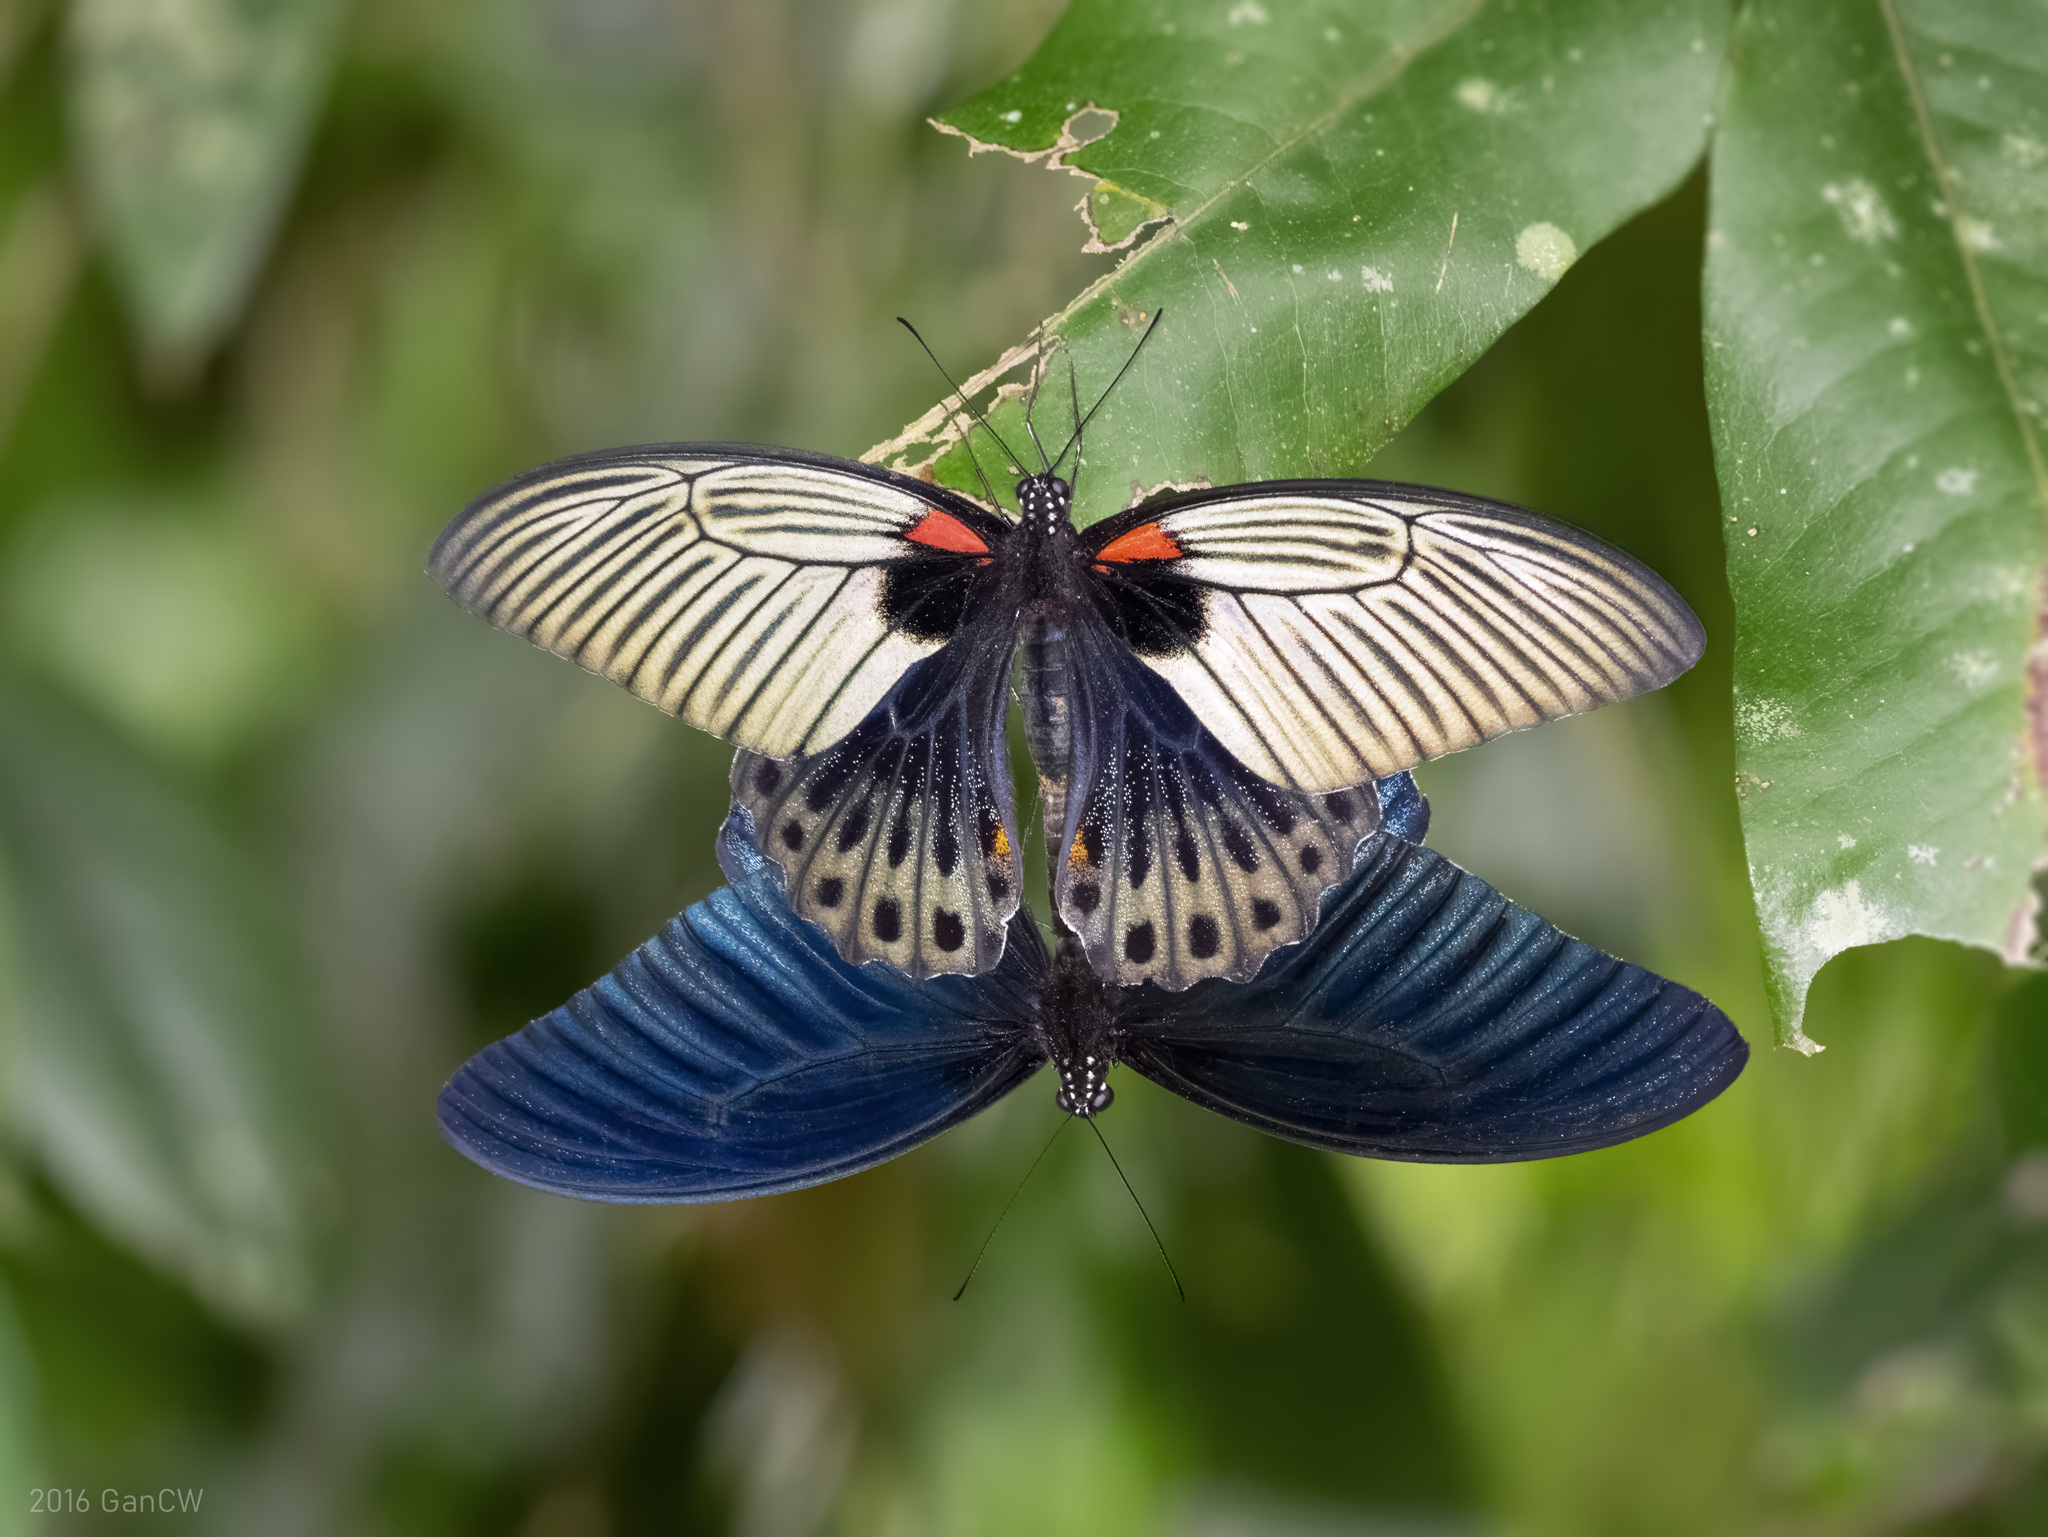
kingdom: Animalia
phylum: Arthropoda
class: Insecta
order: Lepidoptera
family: Papilionidae
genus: Papilio
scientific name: Papilio memnon
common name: Great mormon
